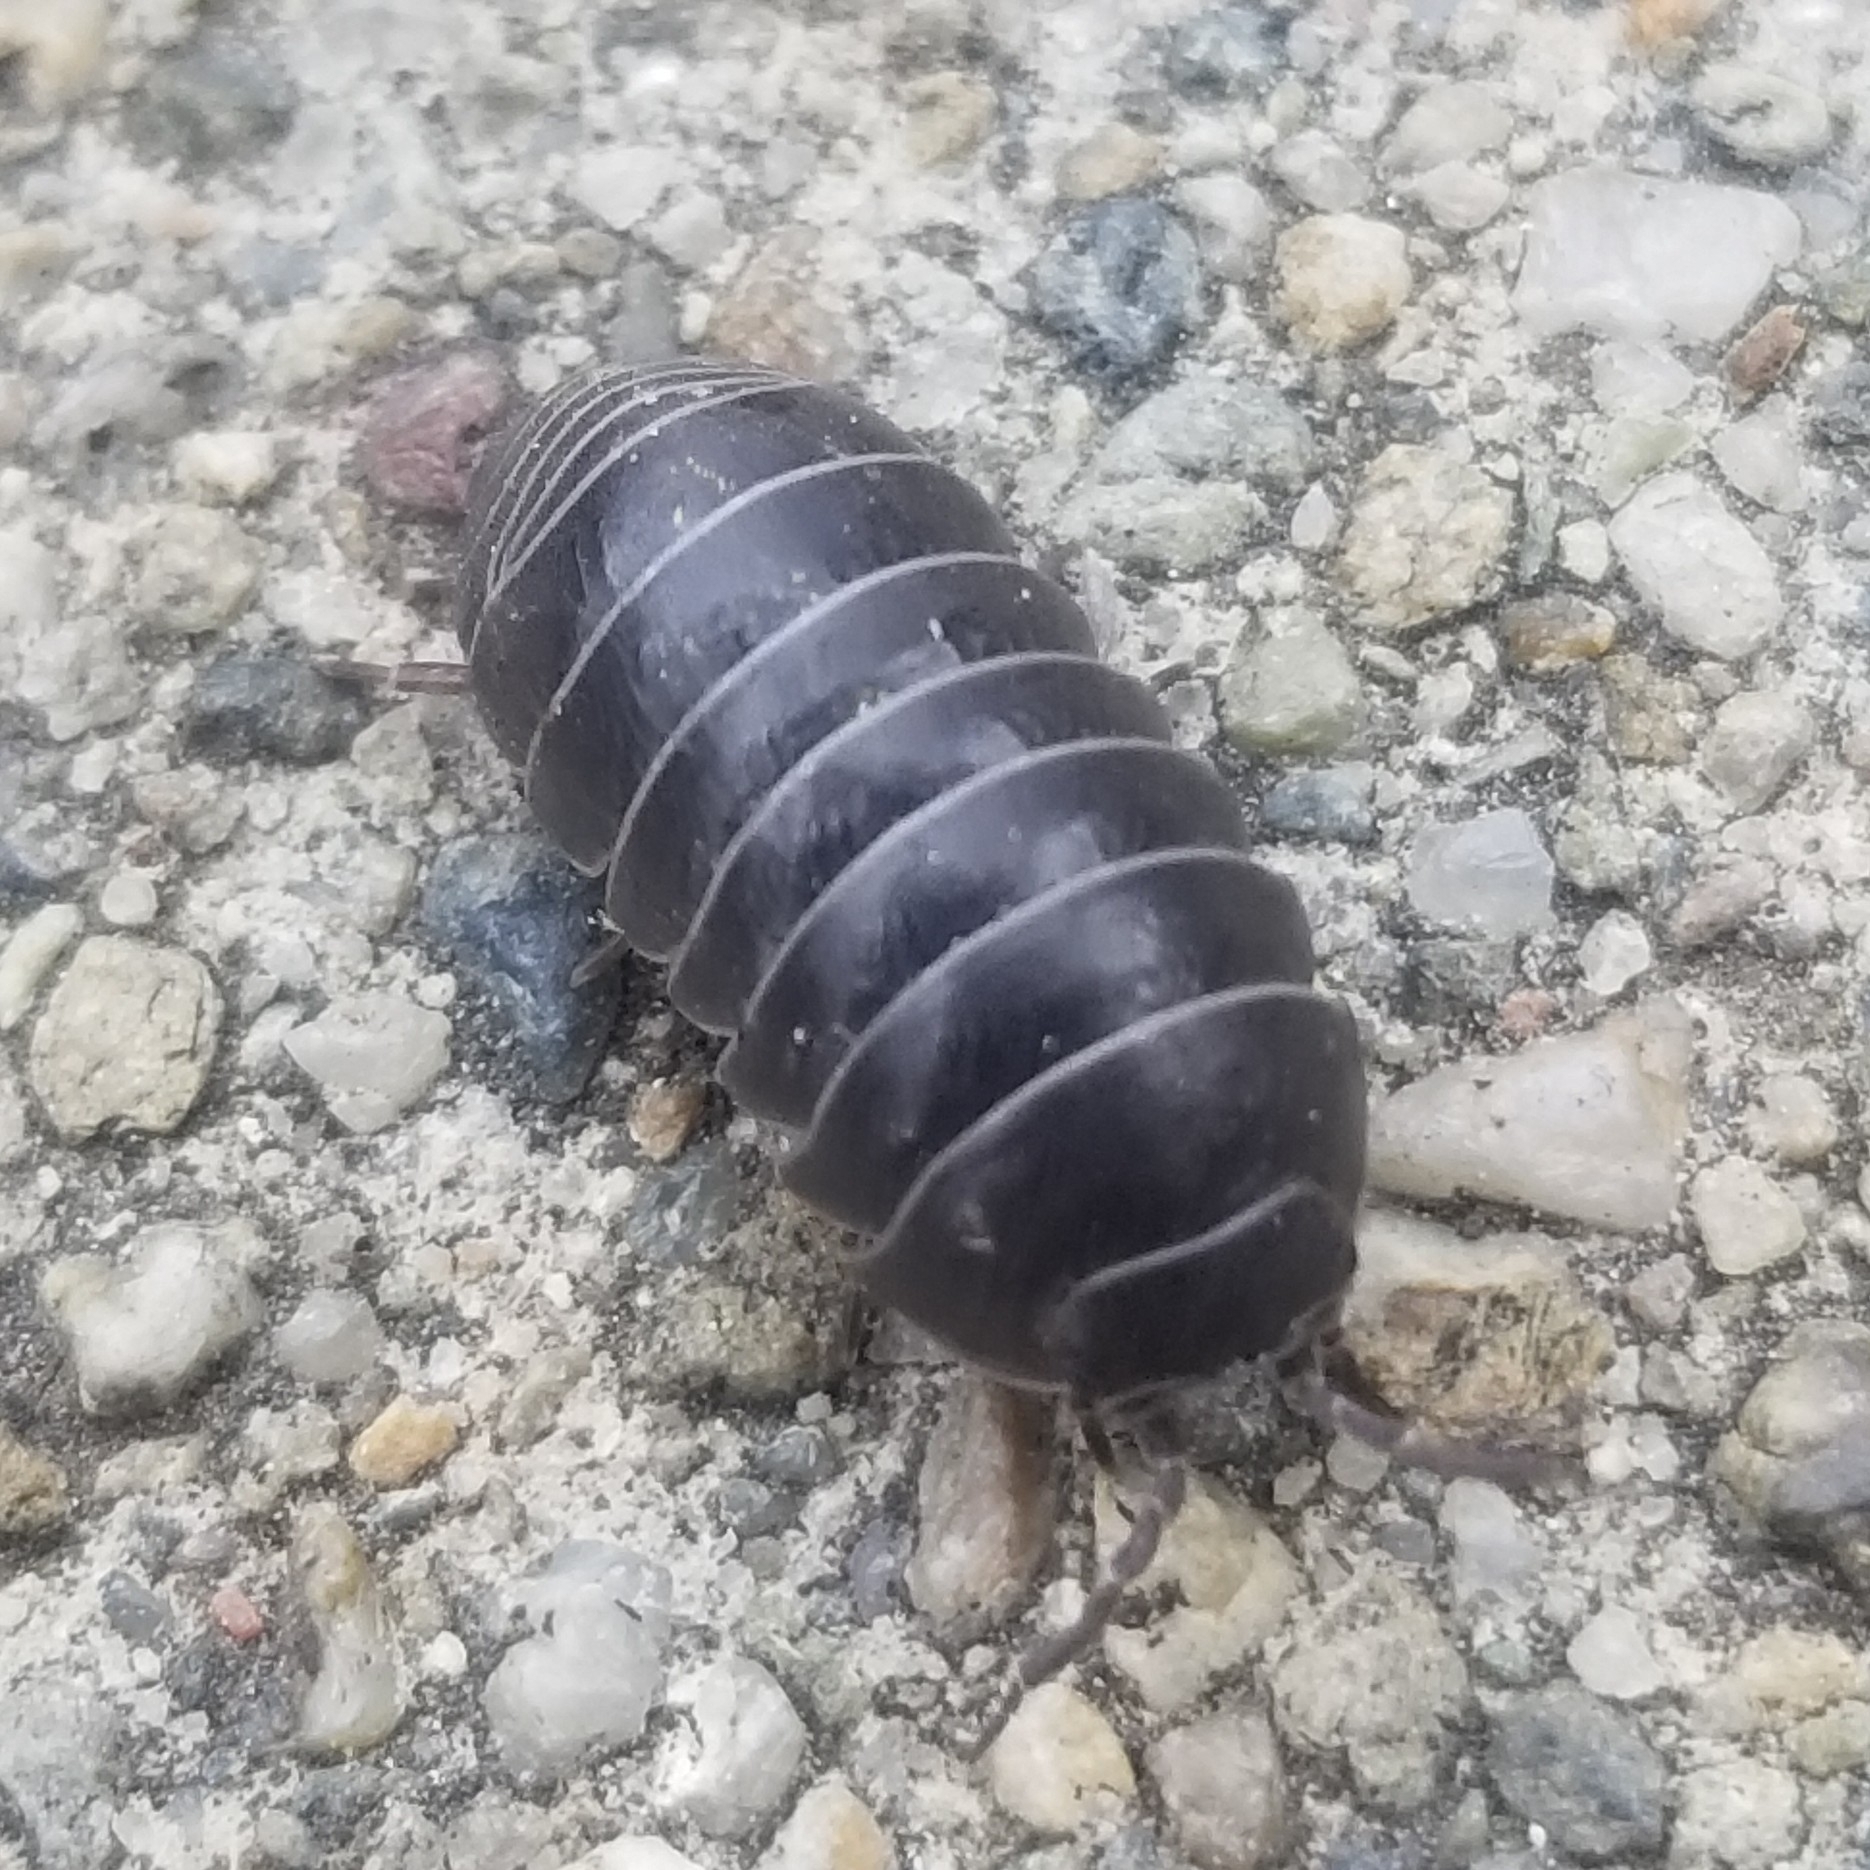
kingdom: Animalia
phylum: Arthropoda
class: Malacostraca
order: Isopoda
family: Armadillidiidae
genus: Armadillidium
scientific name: Armadillidium vulgare
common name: Common pill woodlouse
